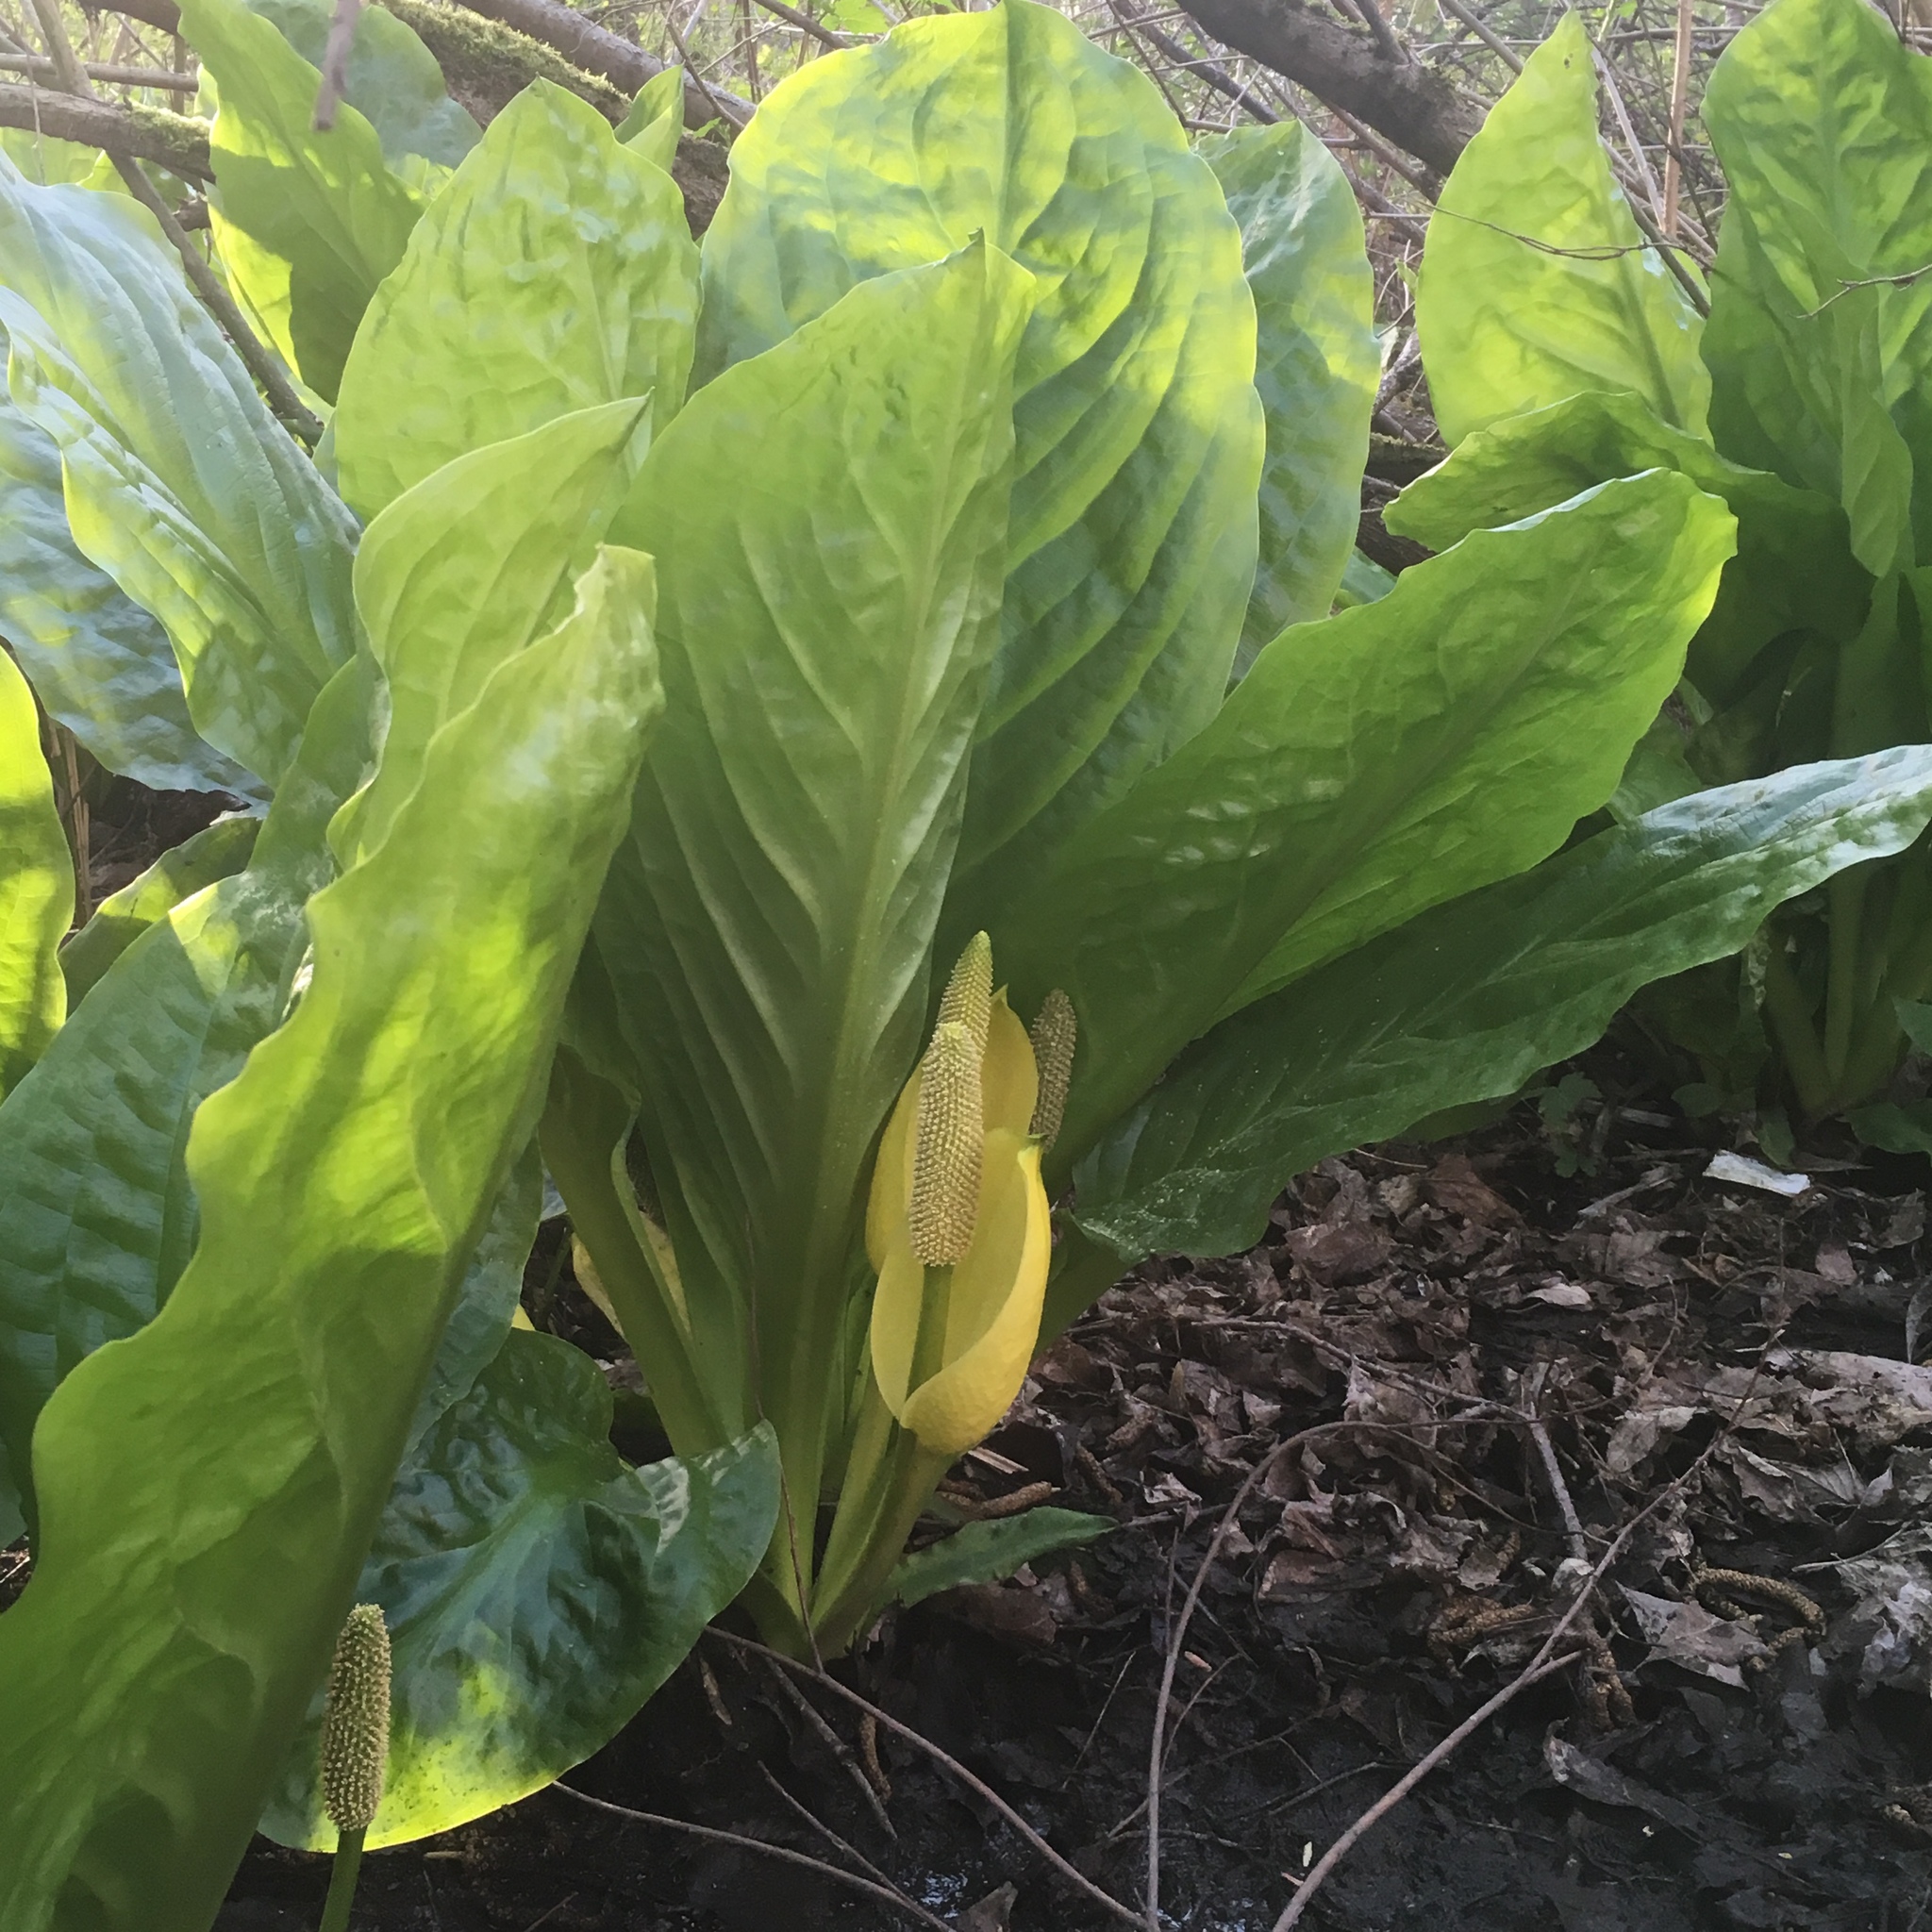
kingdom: Plantae
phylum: Tracheophyta
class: Liliopsida
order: Alismatales
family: Araceae
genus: Lysichiton
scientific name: Lysichiton americanus
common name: American skunk cabbage
